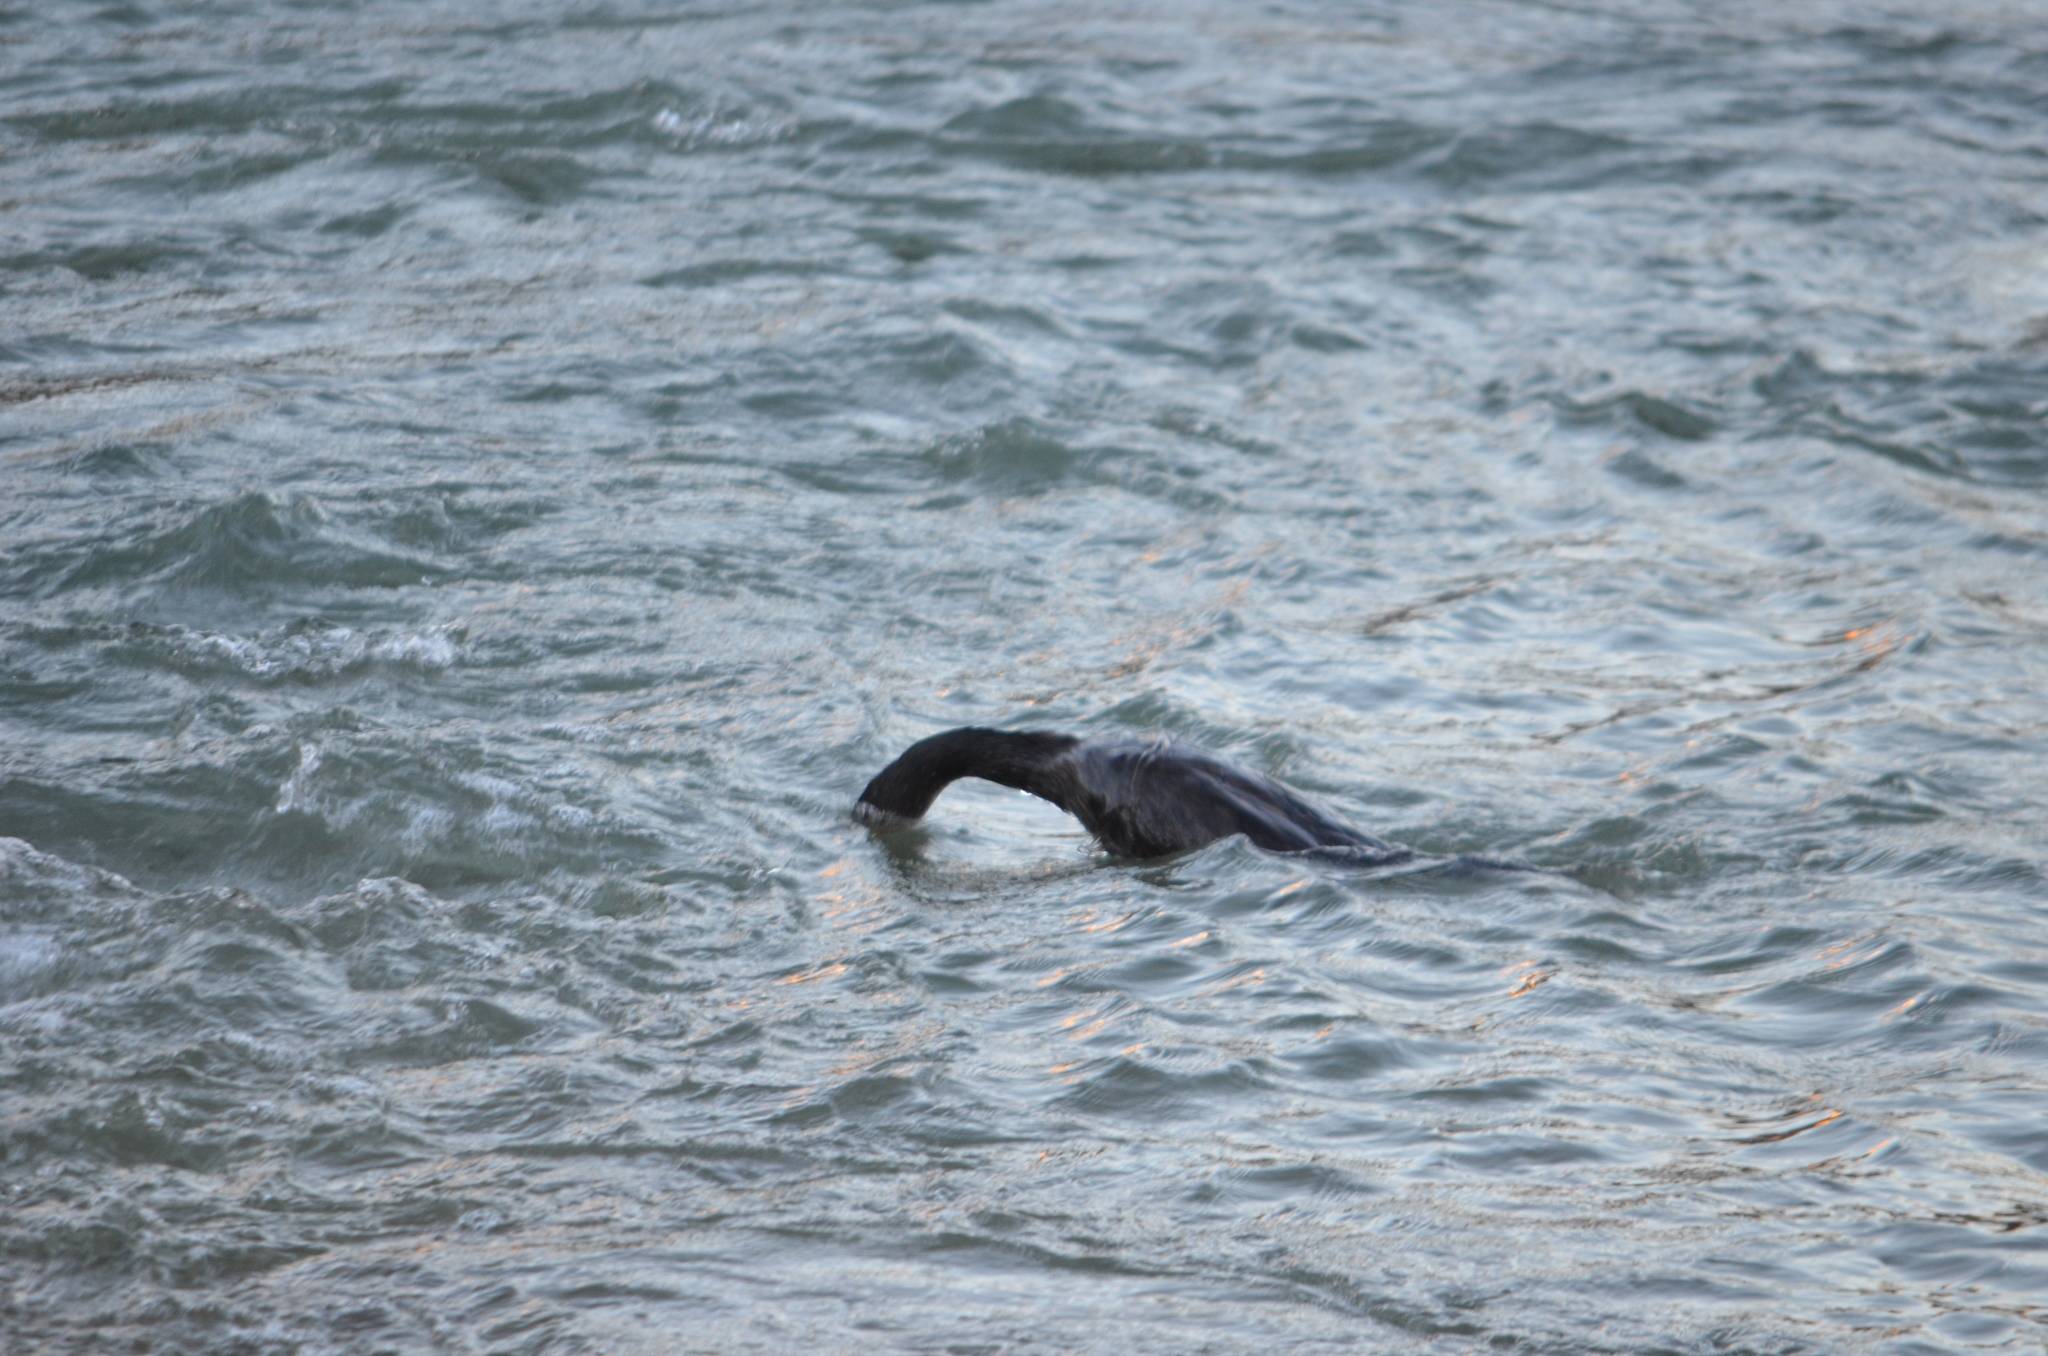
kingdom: Animalia
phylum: Chordata
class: Aves
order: Suliformes
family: Phalacrocoracidae
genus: Phalacrocorax
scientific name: Phalacrocorax carbo
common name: Great cormorant
